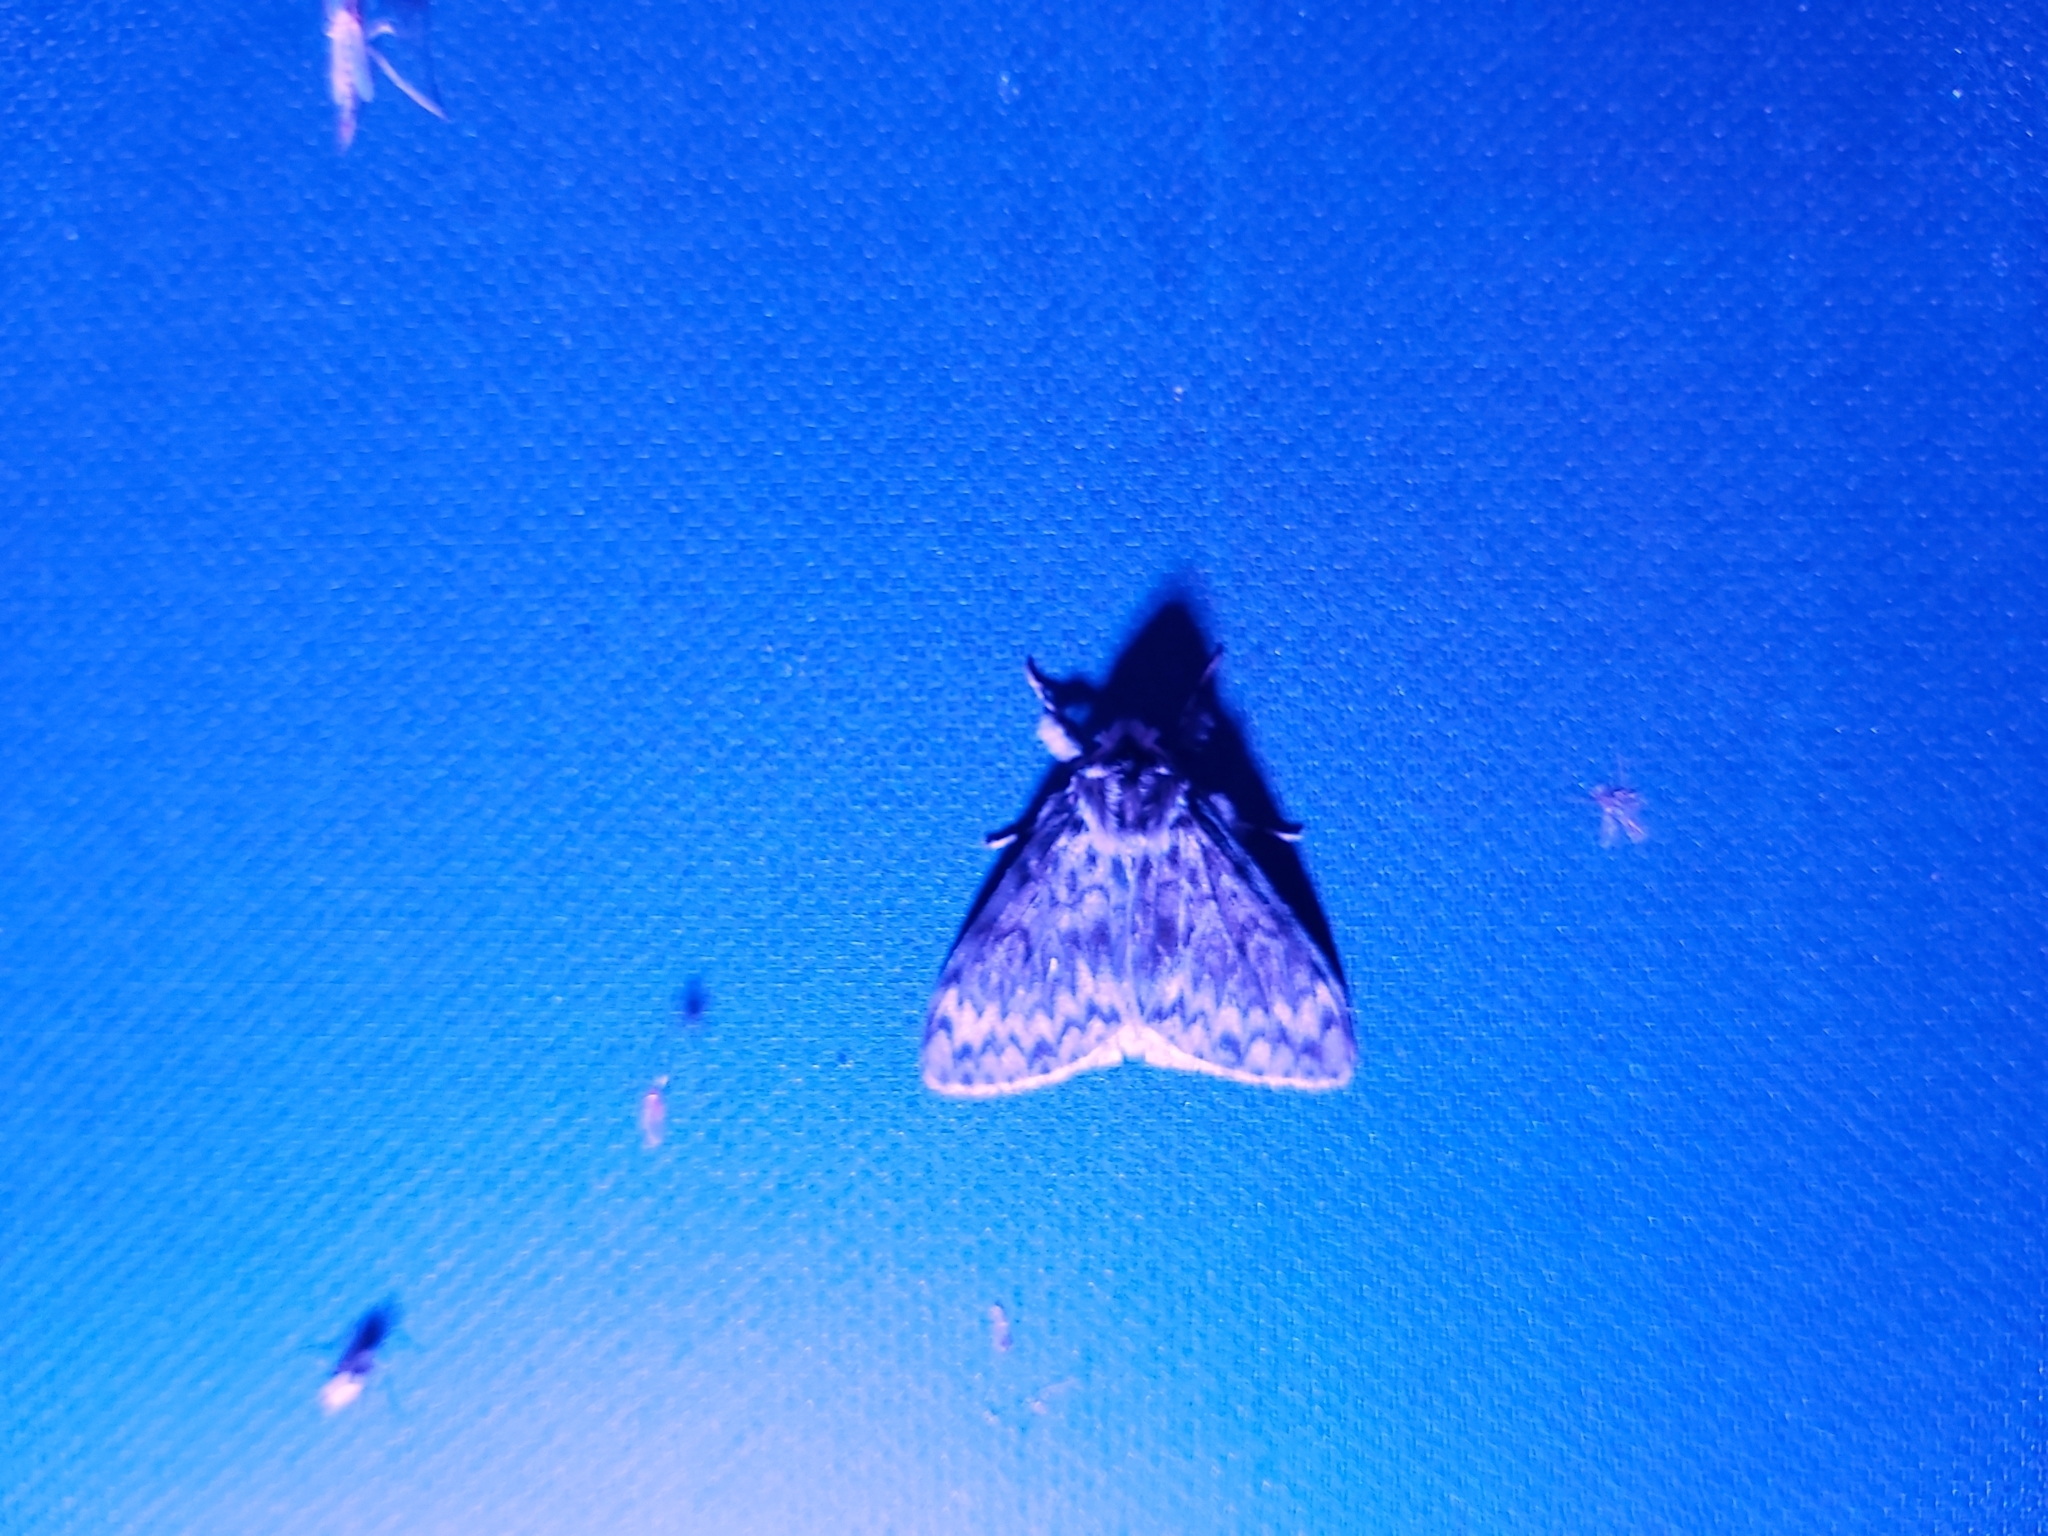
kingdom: Animalia
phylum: Arthropoda
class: Insecta
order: Lepidoptera
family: Erebidae
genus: Lymantria
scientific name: Lymantria monacha
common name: Black arches
